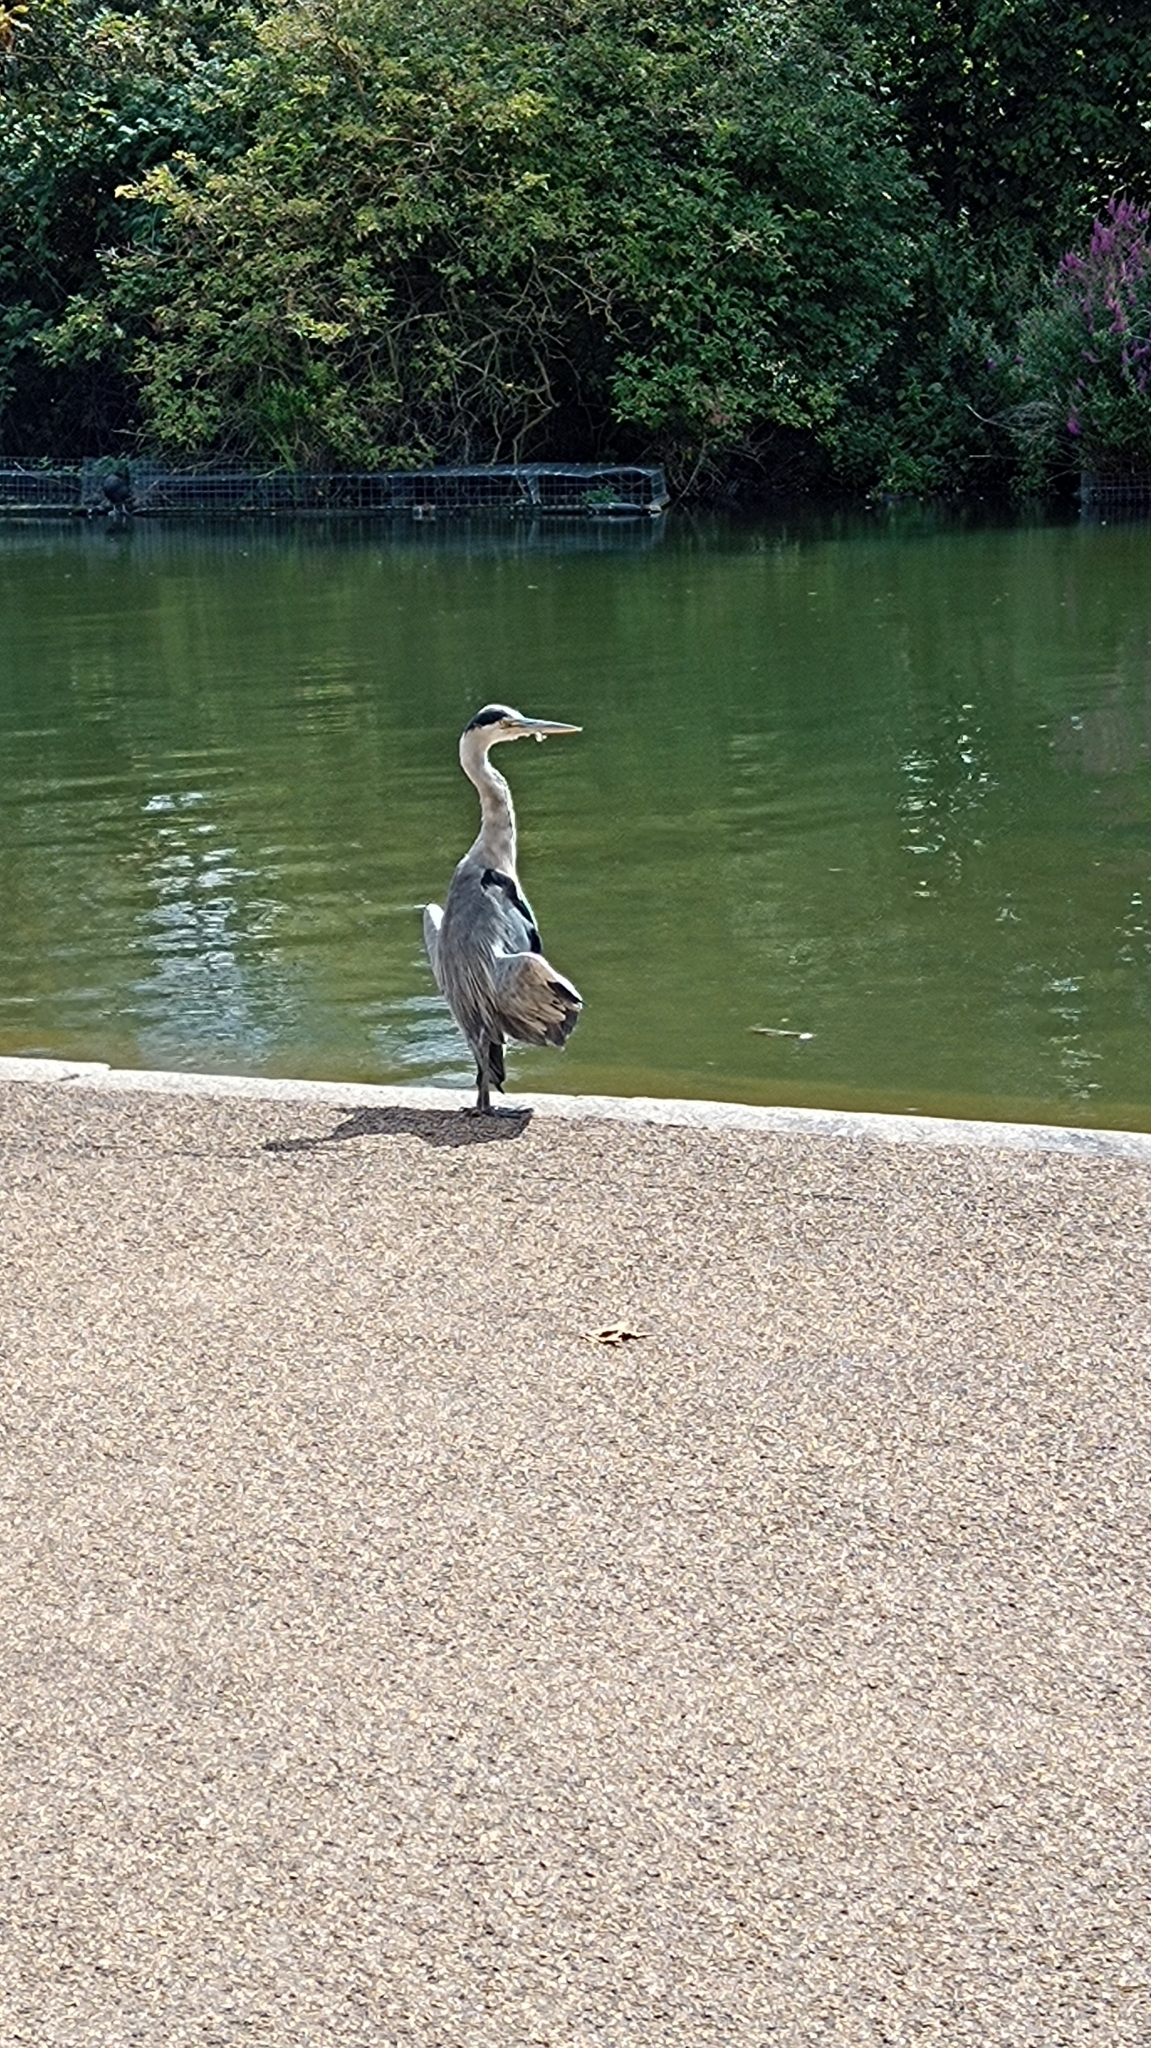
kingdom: Animalia
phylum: Chordata
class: Aves
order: Pelecaniformes
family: Ardeidae
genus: Ardea
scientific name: Ardea cinerea
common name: Grey heron
